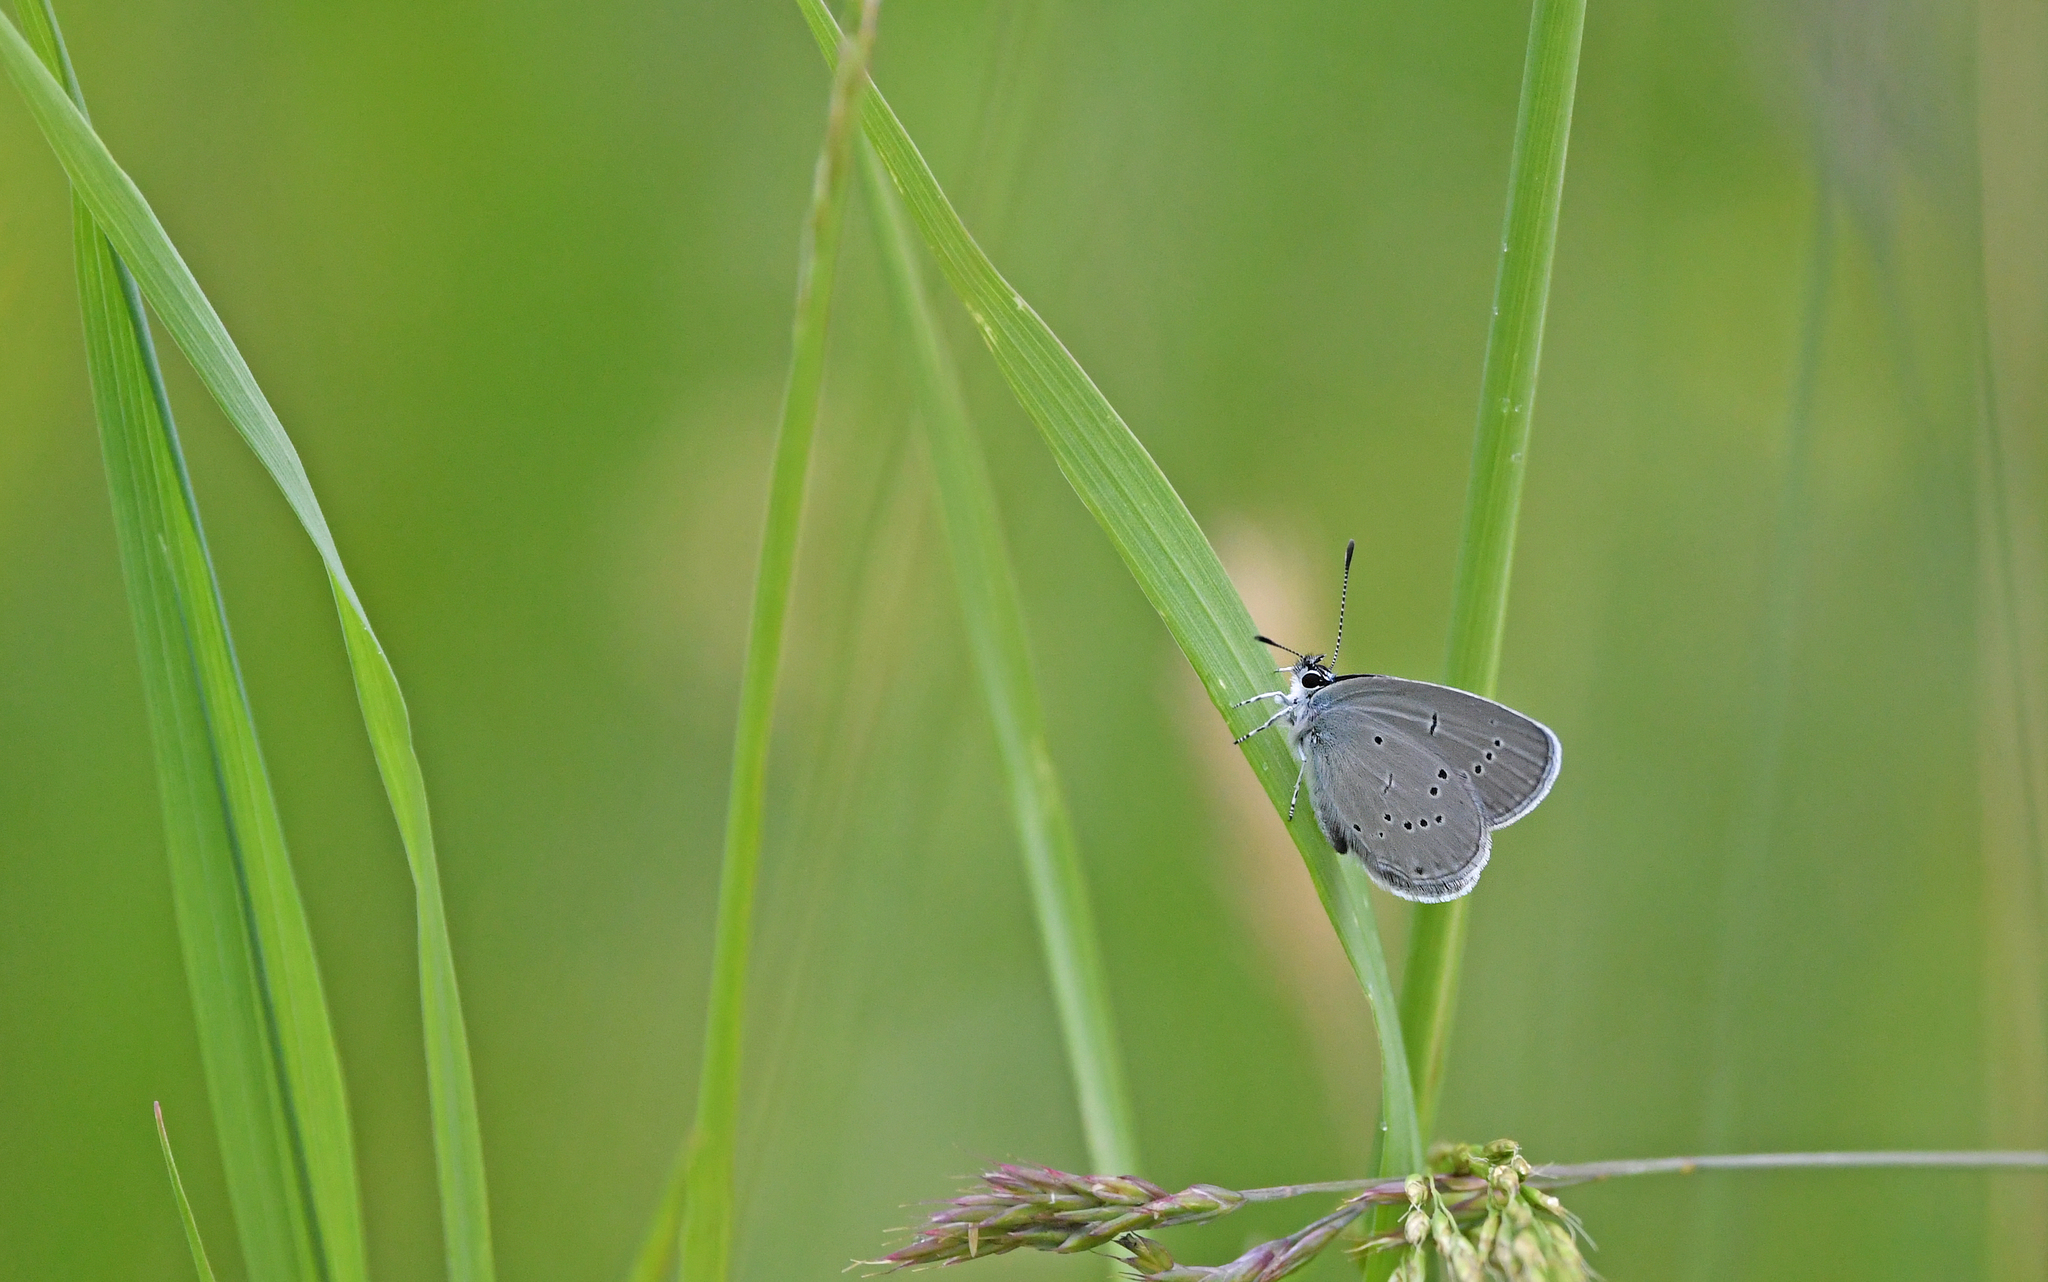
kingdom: Animalia
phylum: Arthropoda
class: Insecta
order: Lepidoptera
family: Lycaenidae
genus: Cupido
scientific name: Cupido minimus
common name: Small blue
